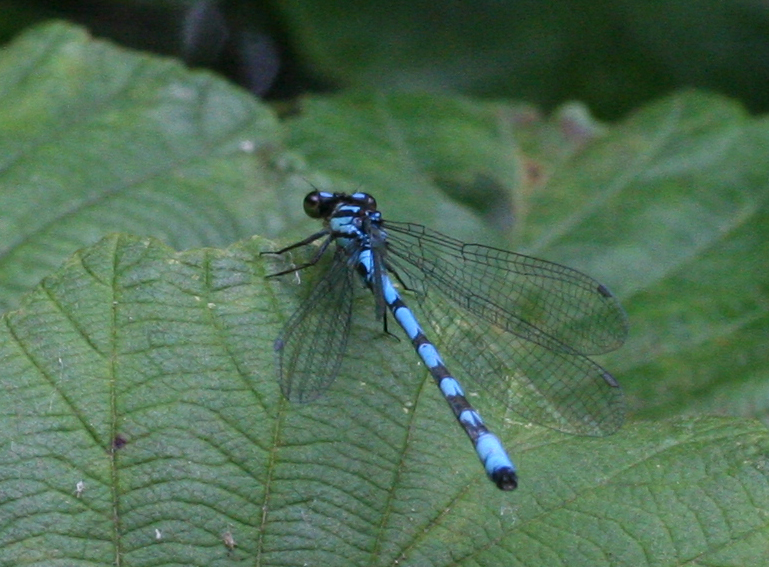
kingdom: Animalia
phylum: Arthropoda
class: Insecta
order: Odonata
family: Coenagrionidae
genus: Coenagrion
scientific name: Coenagrion hylas
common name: Frey's damselfly
